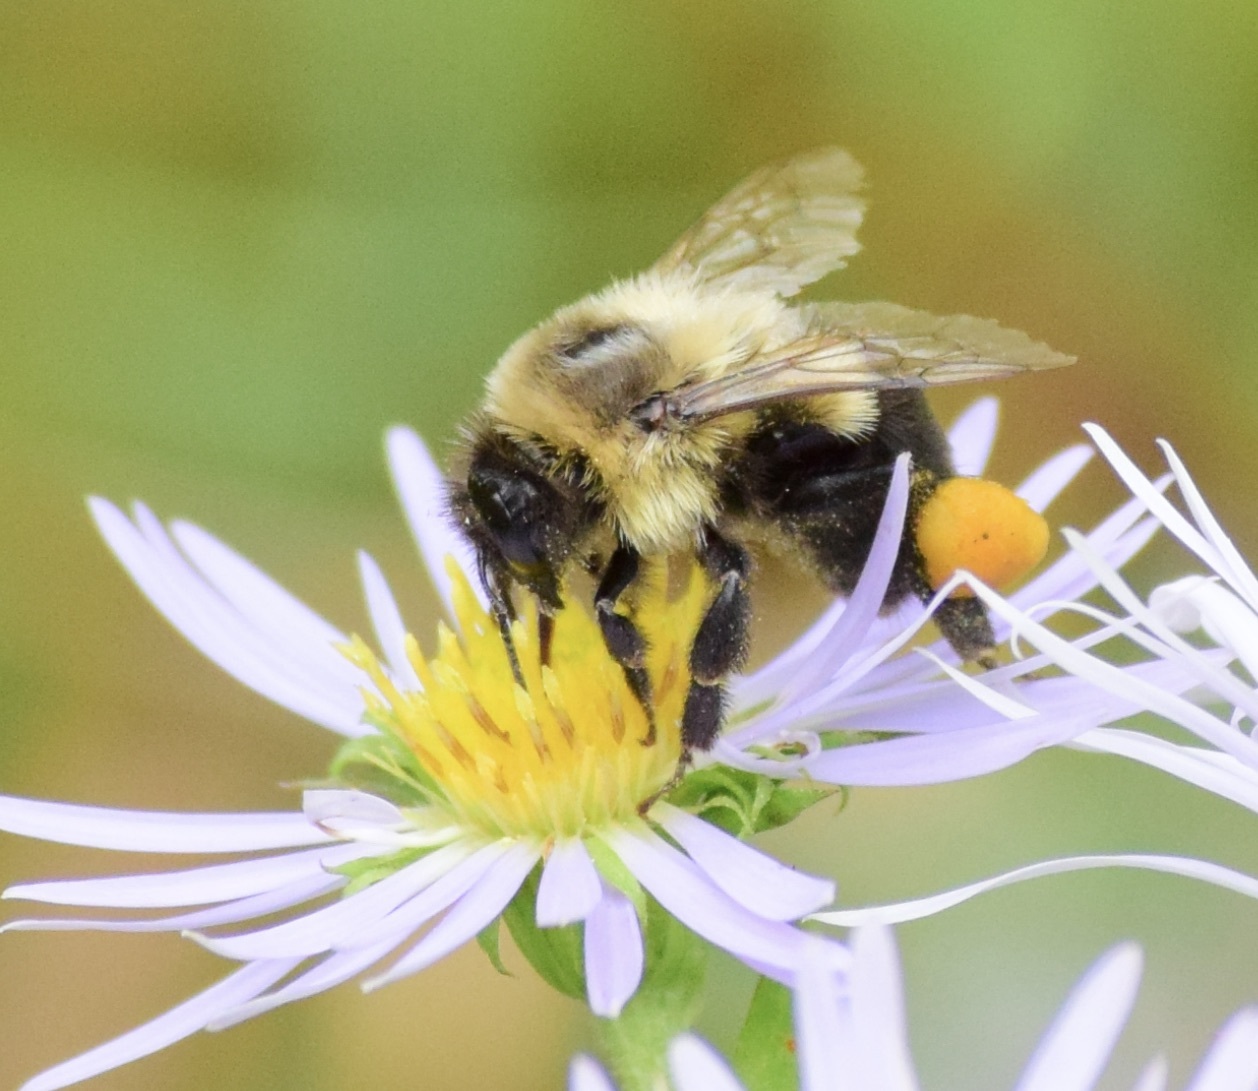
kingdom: Animalia
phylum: Arthropoda
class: Insecta
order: Hymenoptera
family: Apidae
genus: Bombus
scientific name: Bombus impatiens
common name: Common eastern bumble bee
